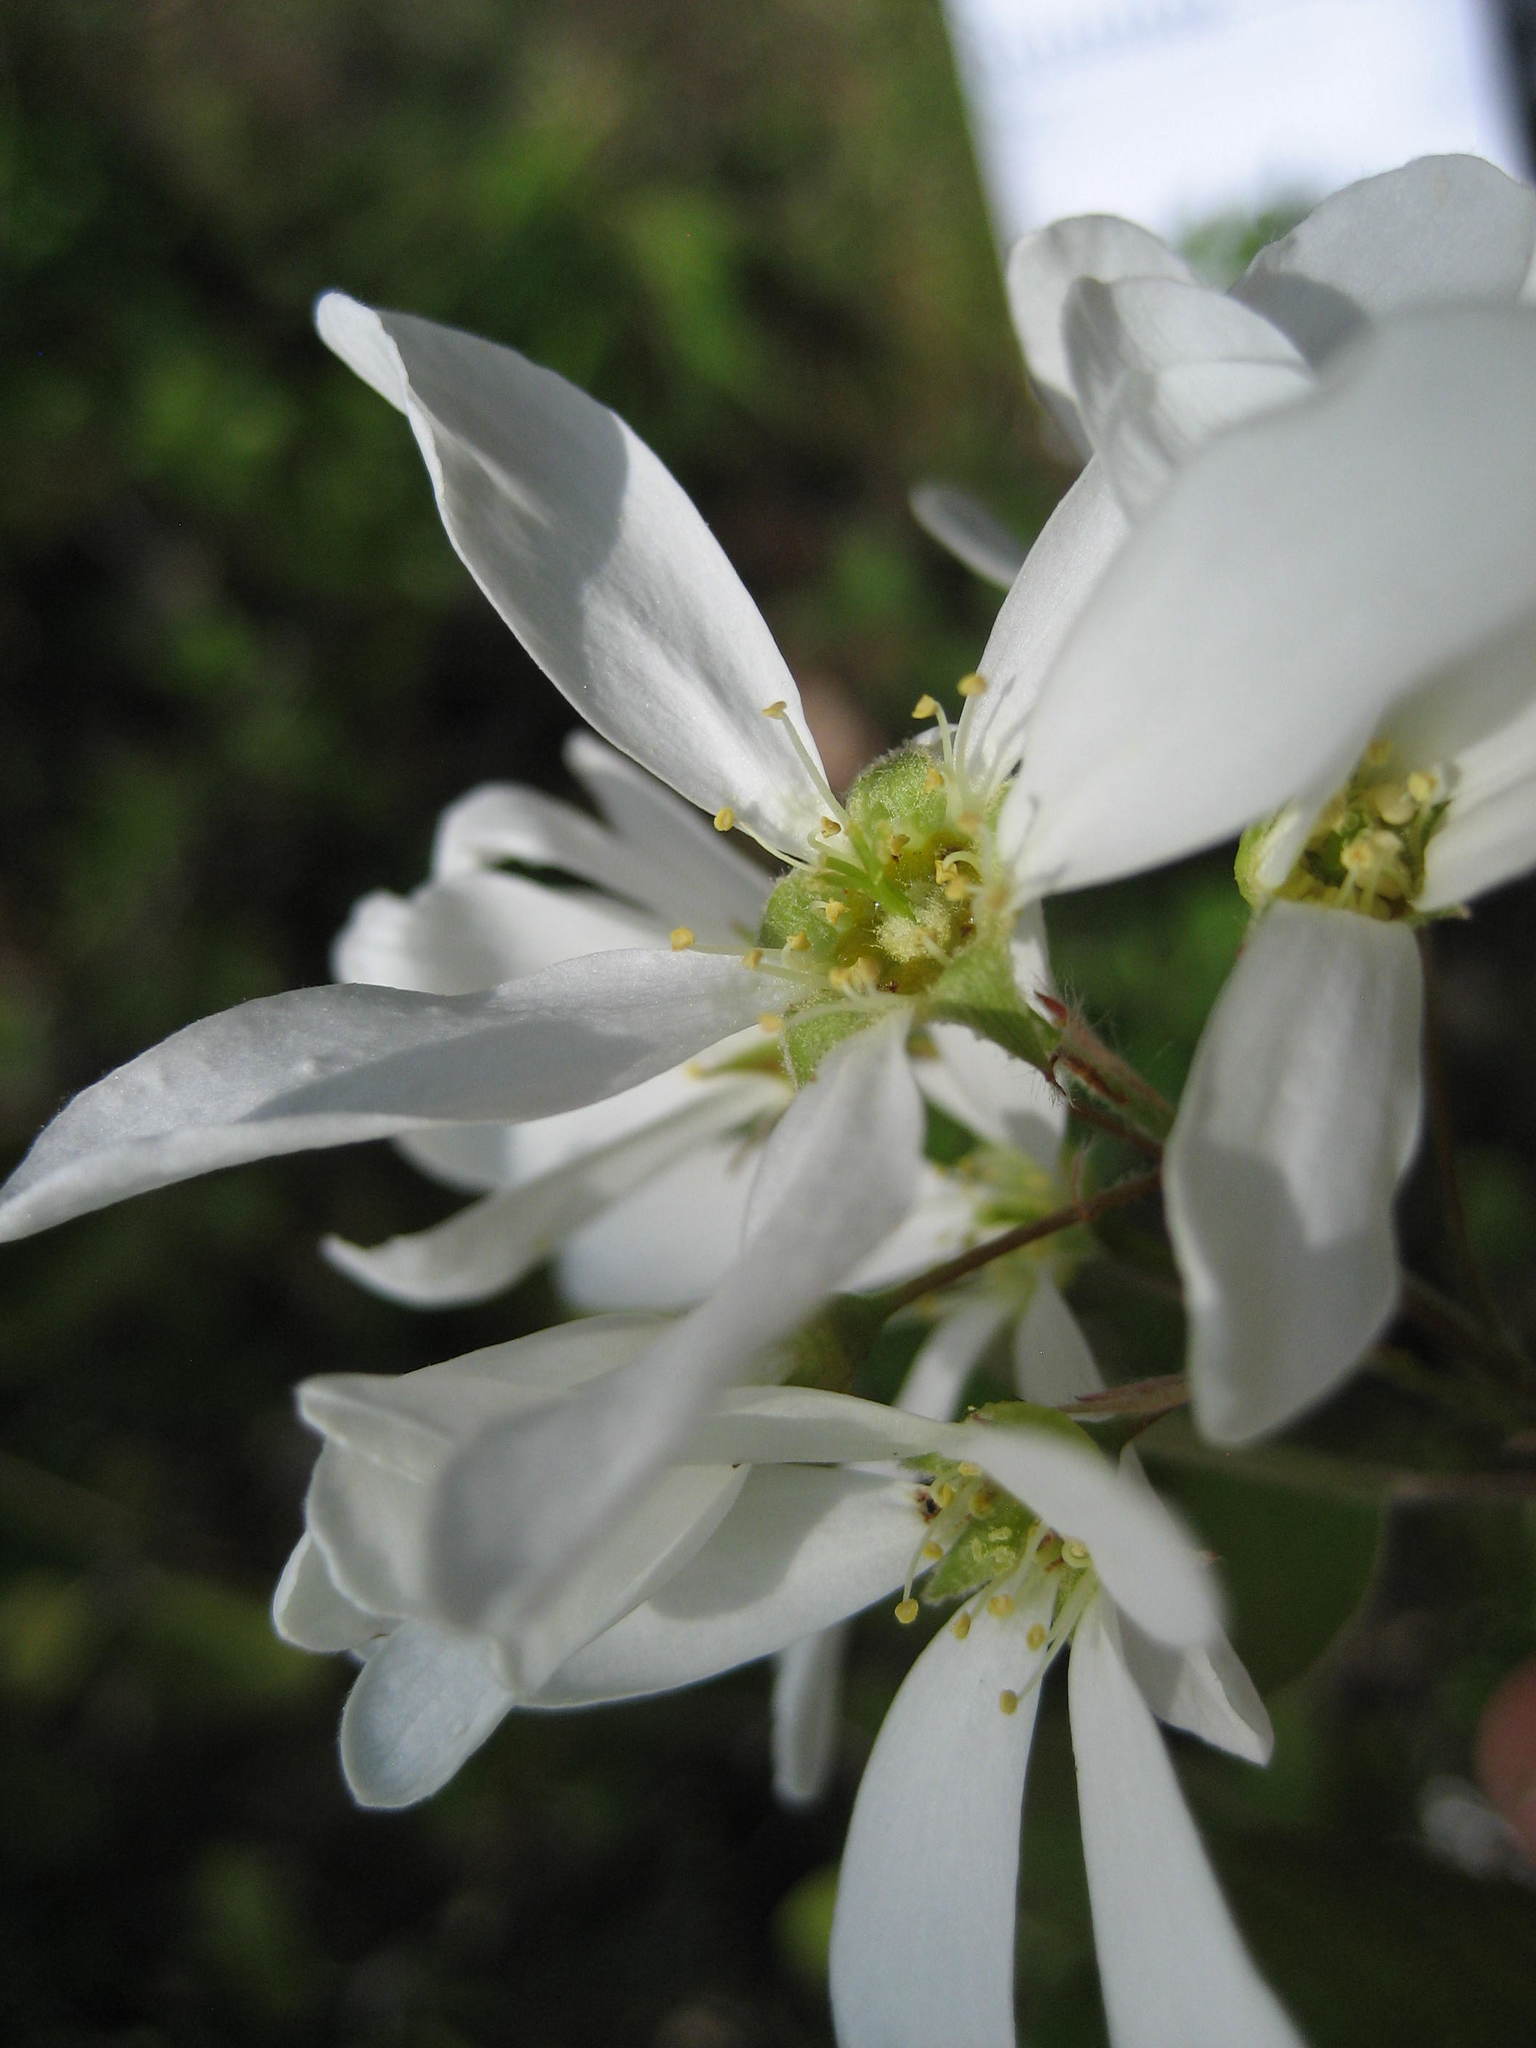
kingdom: Plantae
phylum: Tracheophyta
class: Magnoliopsida
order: Rosales
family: Rosaceae
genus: Amelanchier
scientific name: Amelanchier sanguinea
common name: Huron serviceberry
